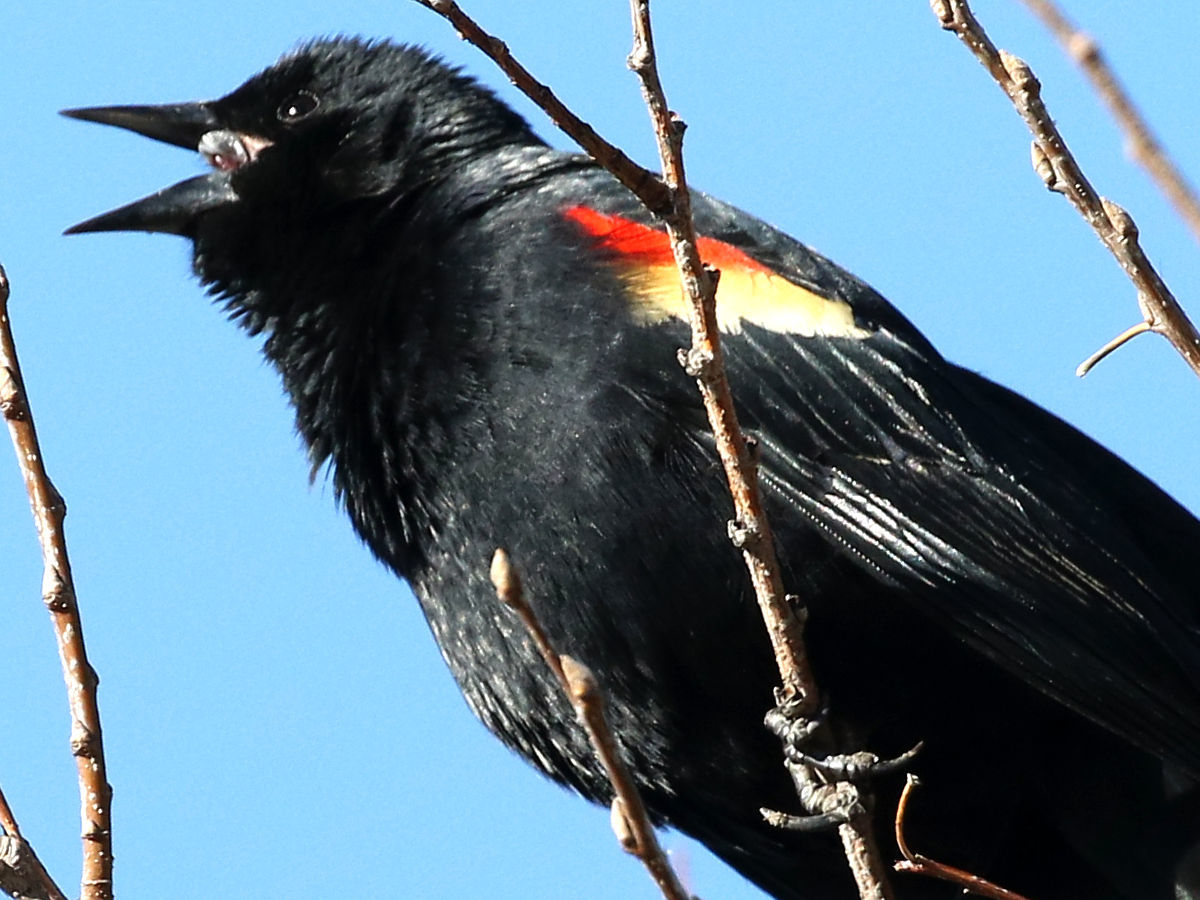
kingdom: Animalia
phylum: Chordata
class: Aves
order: Passeriformes
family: Icteridae
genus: Agelaius
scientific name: Agelaius phoeniceus
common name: Red-winged blackbird
